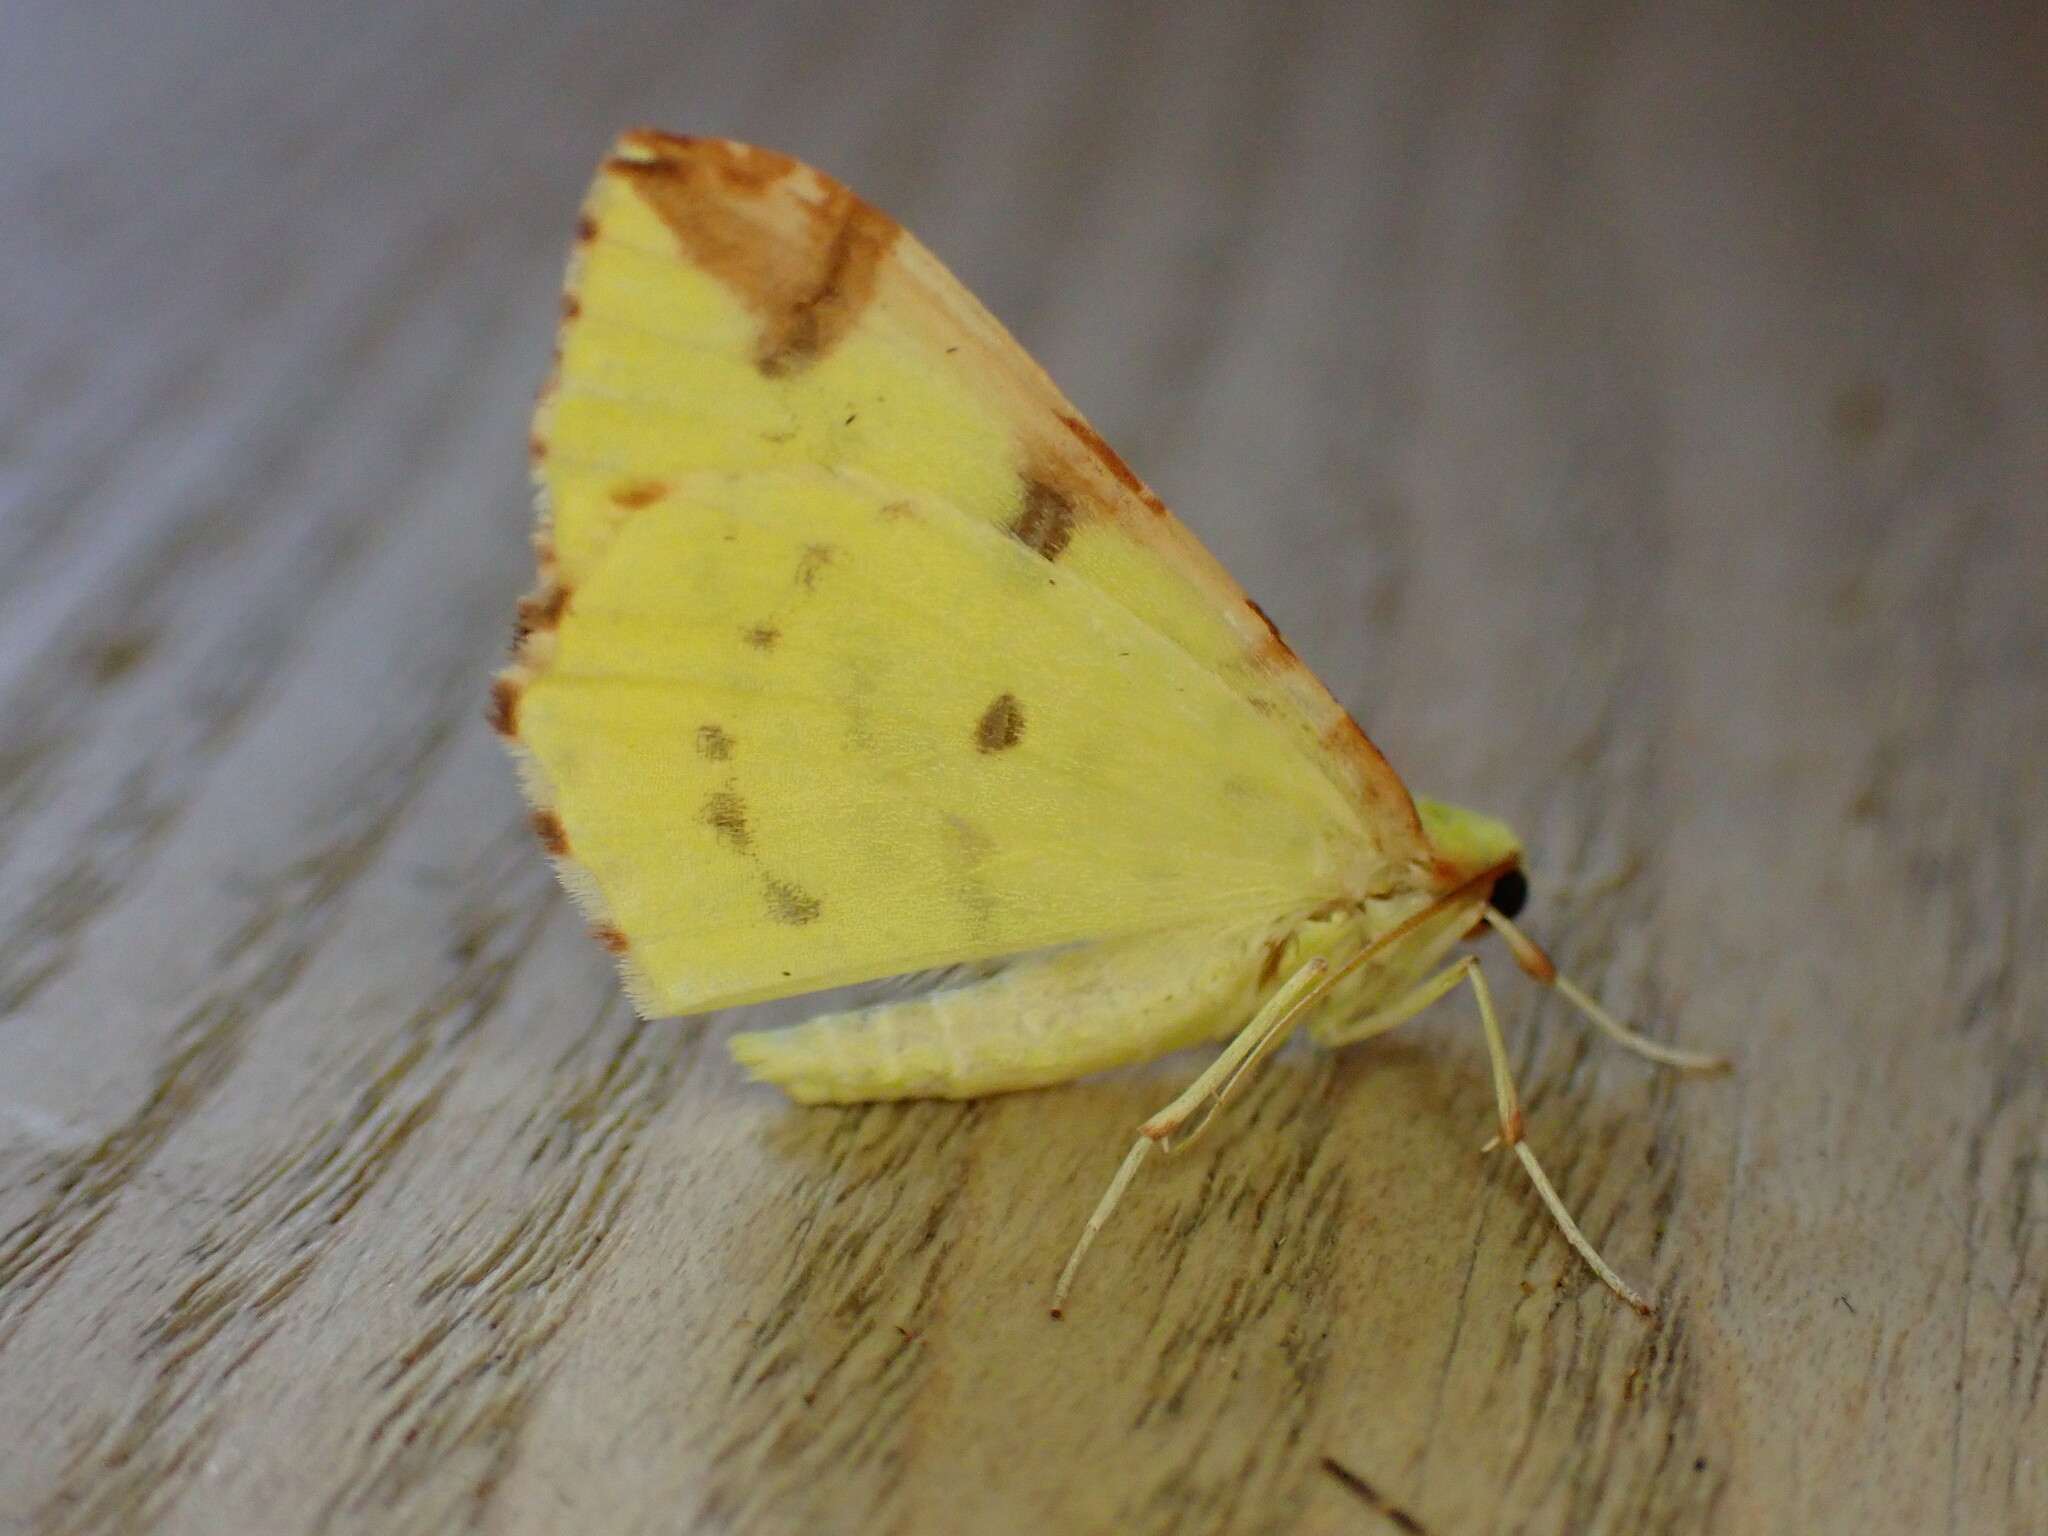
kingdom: Animalia
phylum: Arthropoda
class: Insecta
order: Lepidoptera
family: Geometridae
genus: Opisthograptis
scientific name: Opisthograptis luteolata
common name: Brimstone moth
